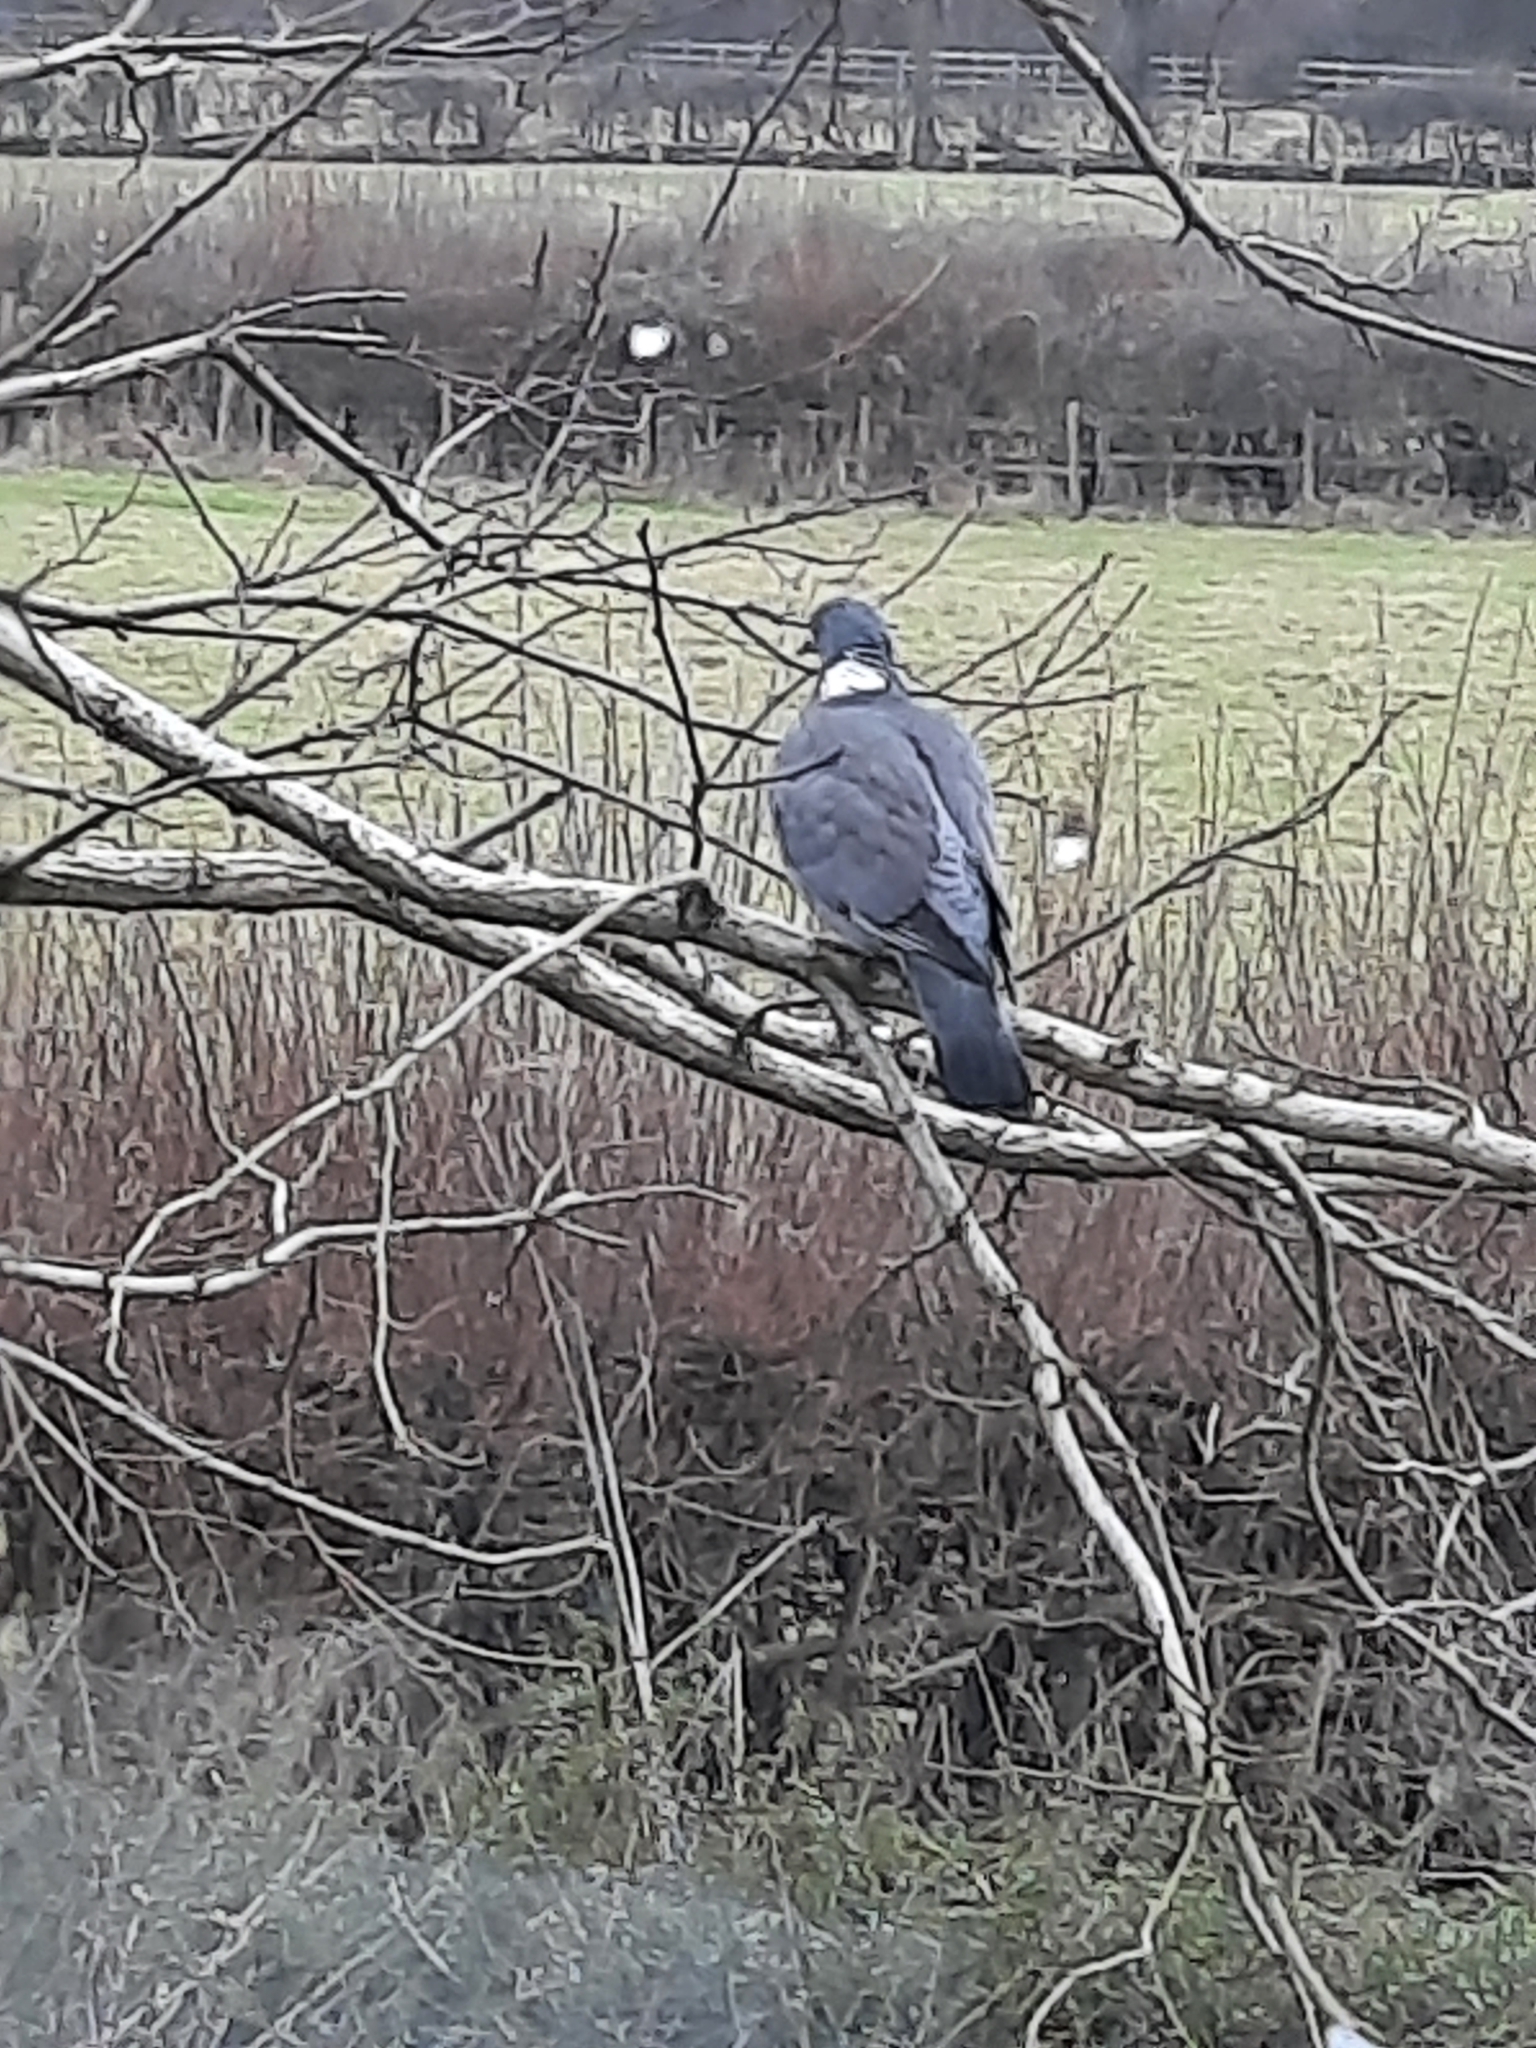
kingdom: Animalia
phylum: Chordata
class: Aves
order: Columbiformes
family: Columbidae
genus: Columba
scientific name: Columba palumbus
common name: Common wood pigeon
